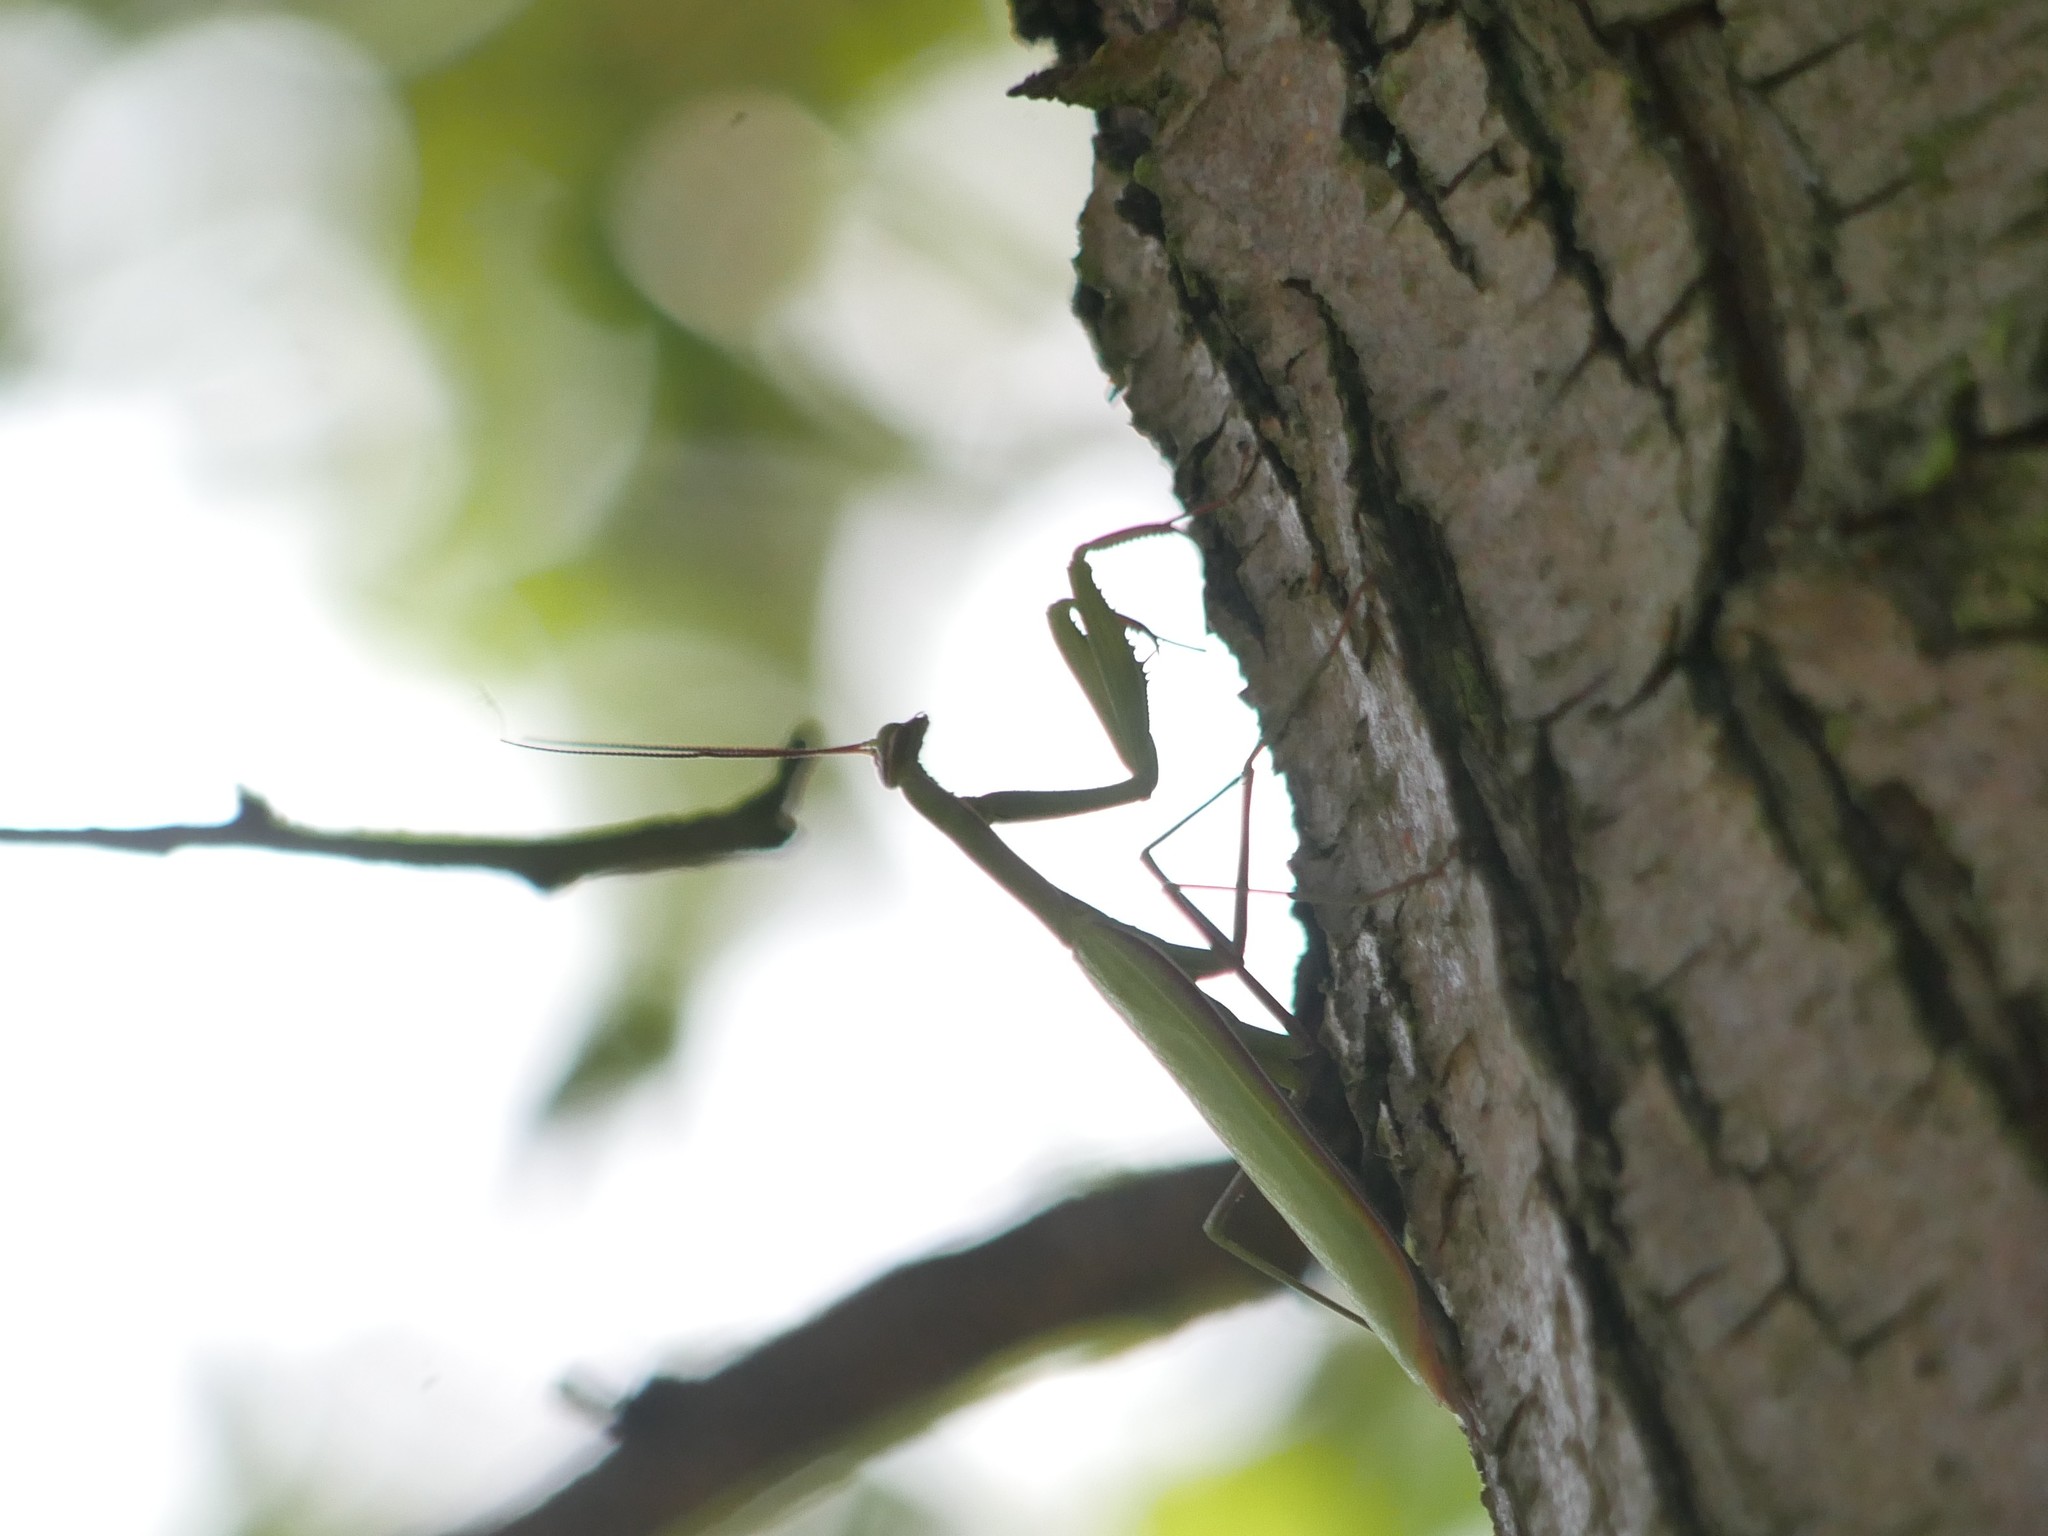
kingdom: Animalia
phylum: Arthropoda
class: Insecta
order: Mantodea
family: Mantidae
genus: Mantis
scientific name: Mantis religiosa
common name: Praying mantis
